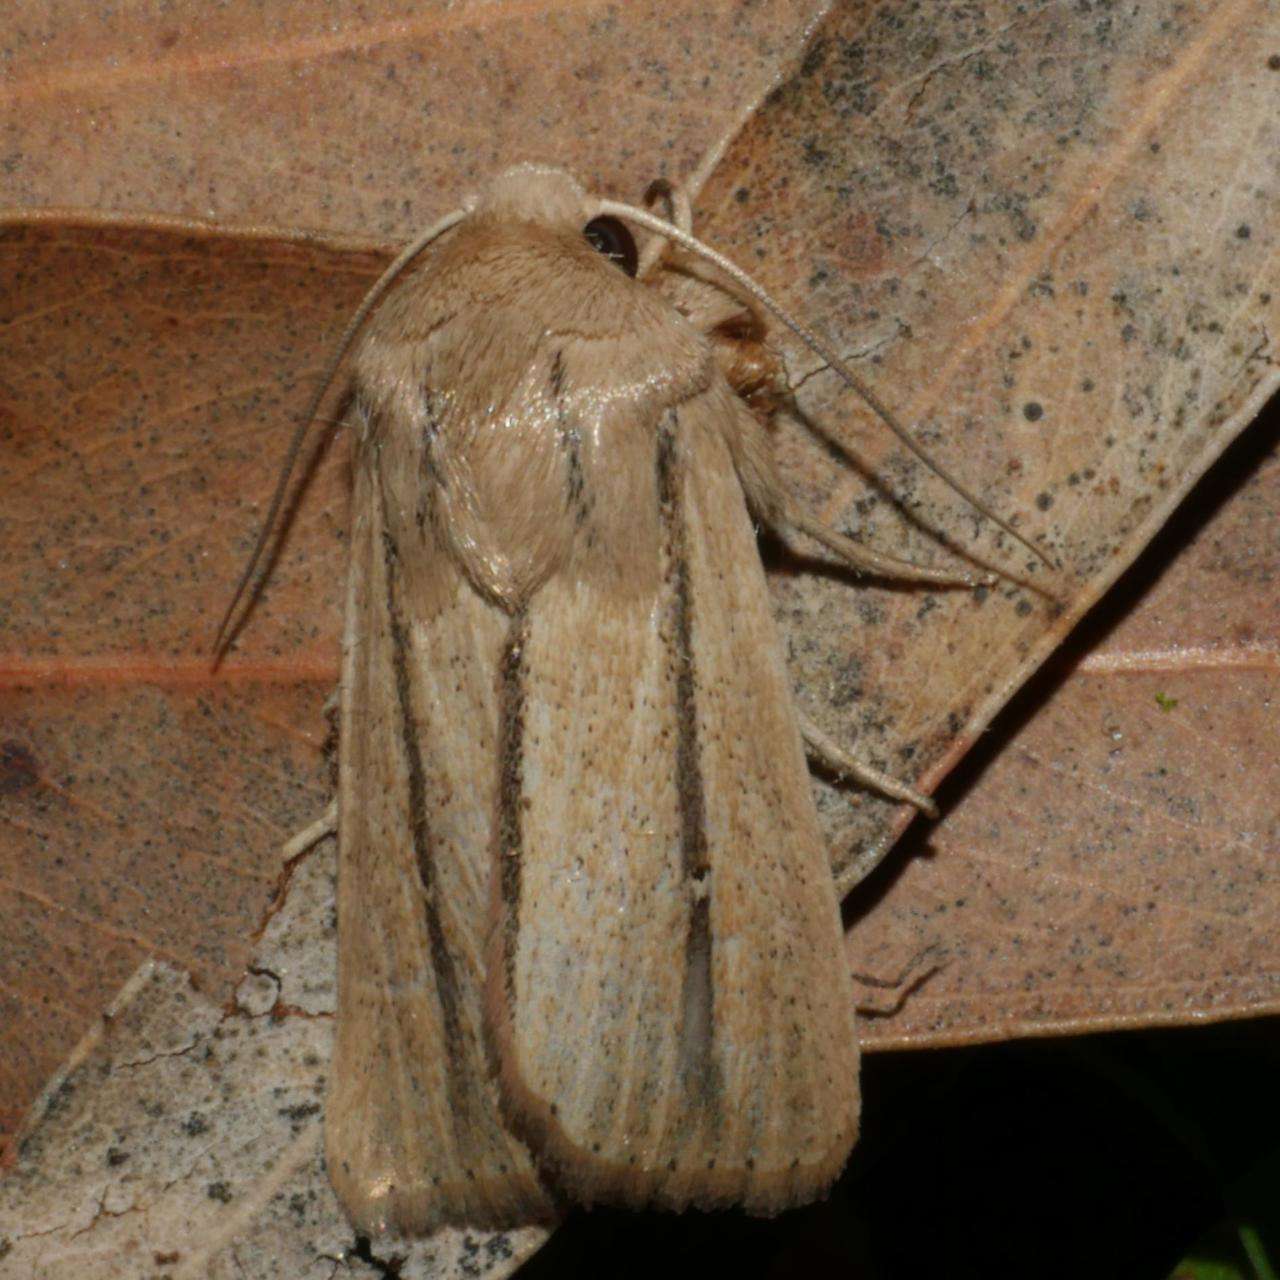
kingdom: Animalia
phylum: Arthropoda
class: Insecta
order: Lepidoptera
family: Noctuidae
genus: Leucania
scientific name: Leucania diatrecta
